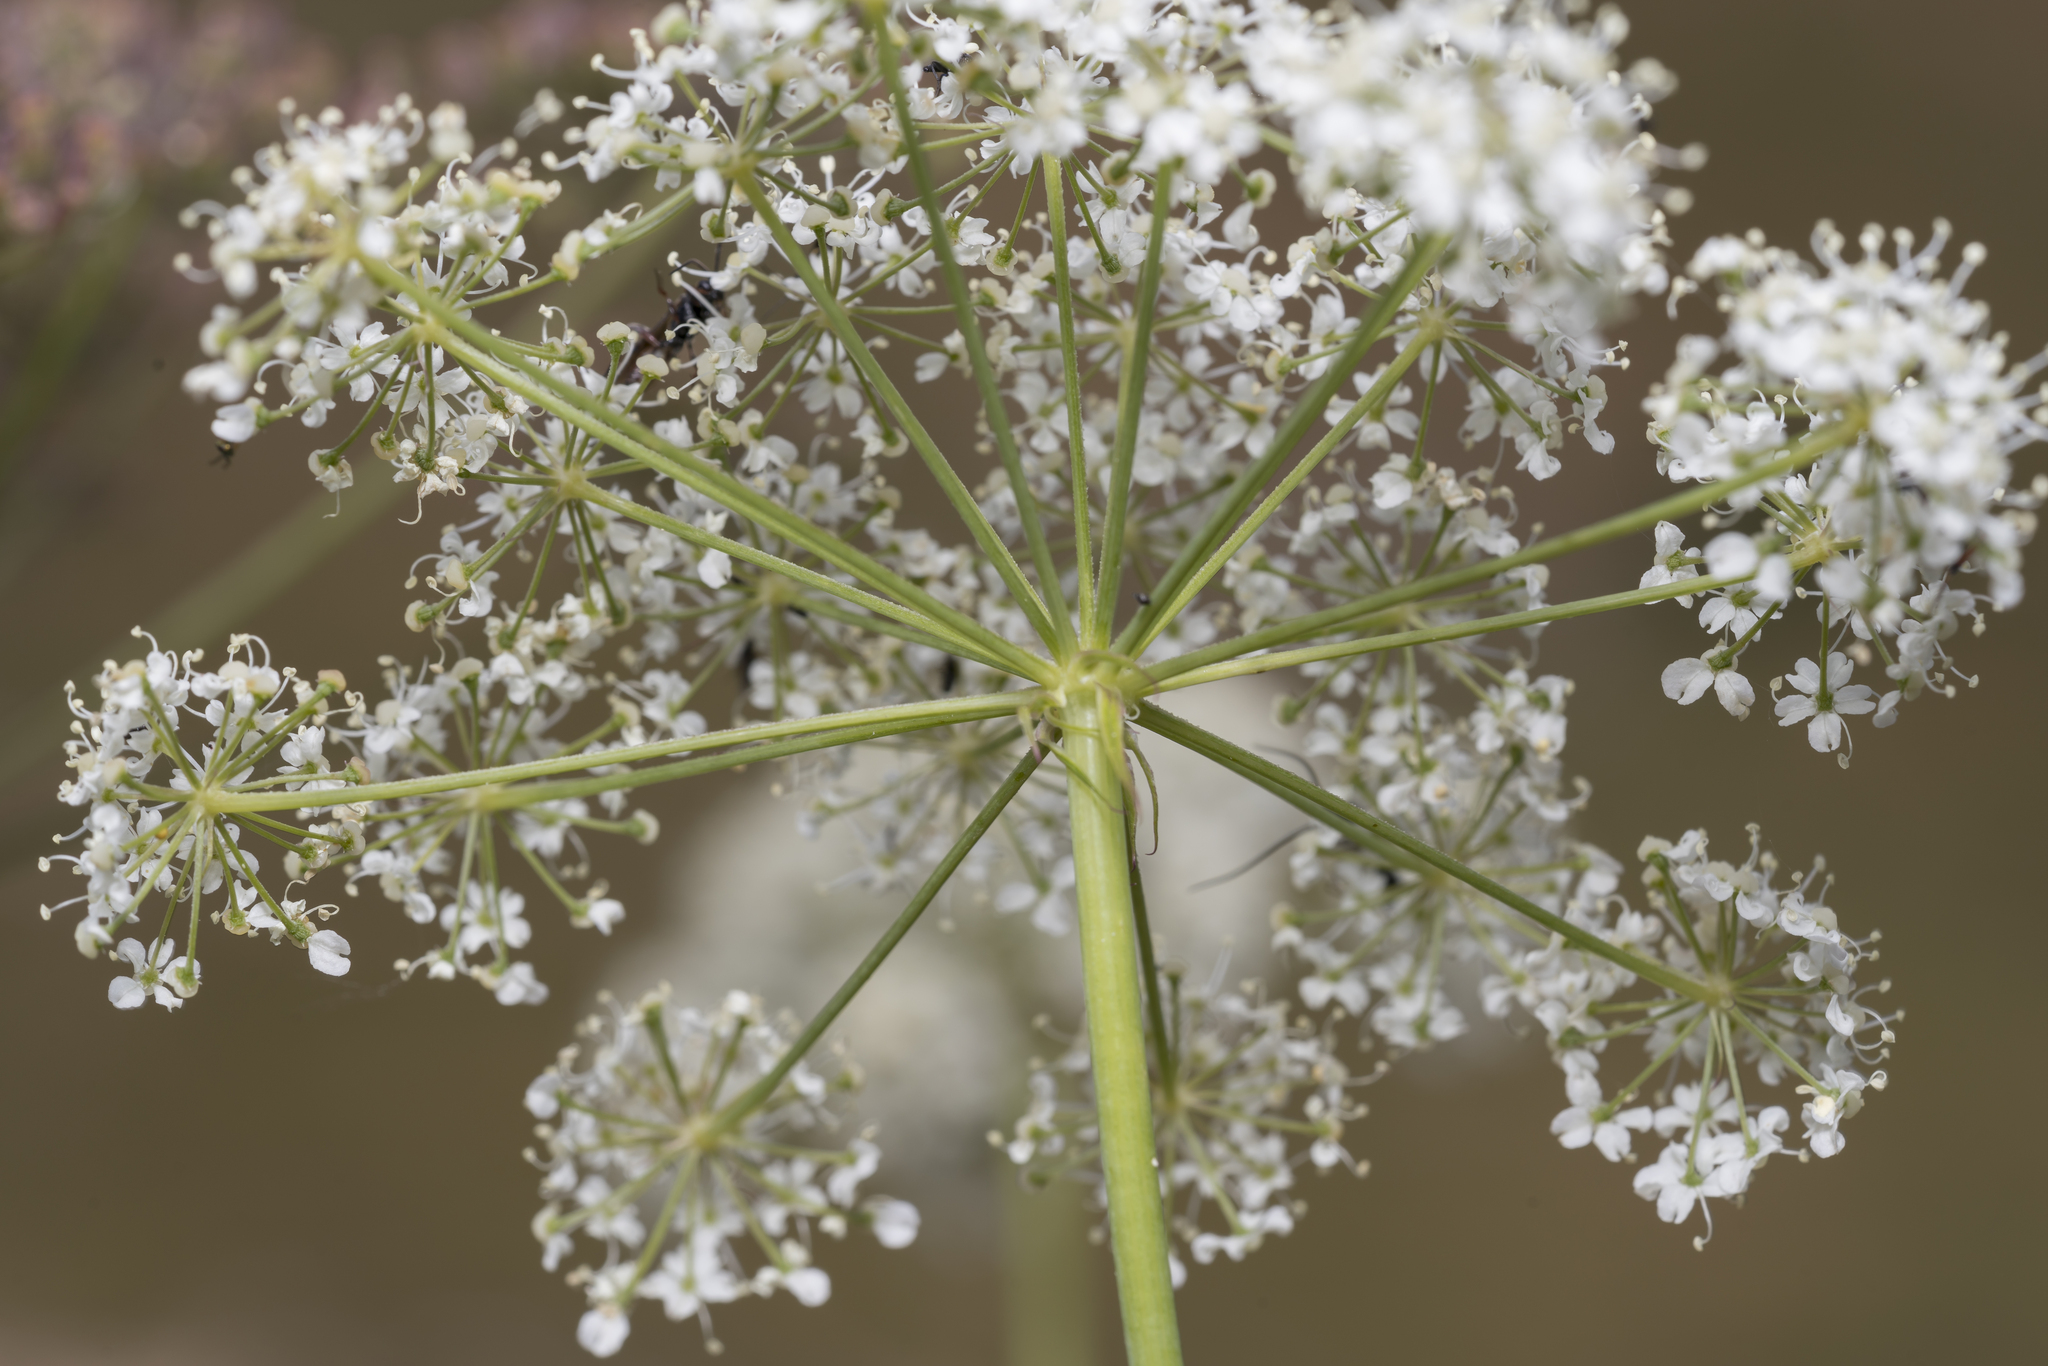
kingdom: Plantae
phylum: Tracheophyta
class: Magnoliopsida
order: Apiales
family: Apiaceae
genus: Laserpitium
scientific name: Laserpitium latifolium
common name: Broadleaf sermountain
